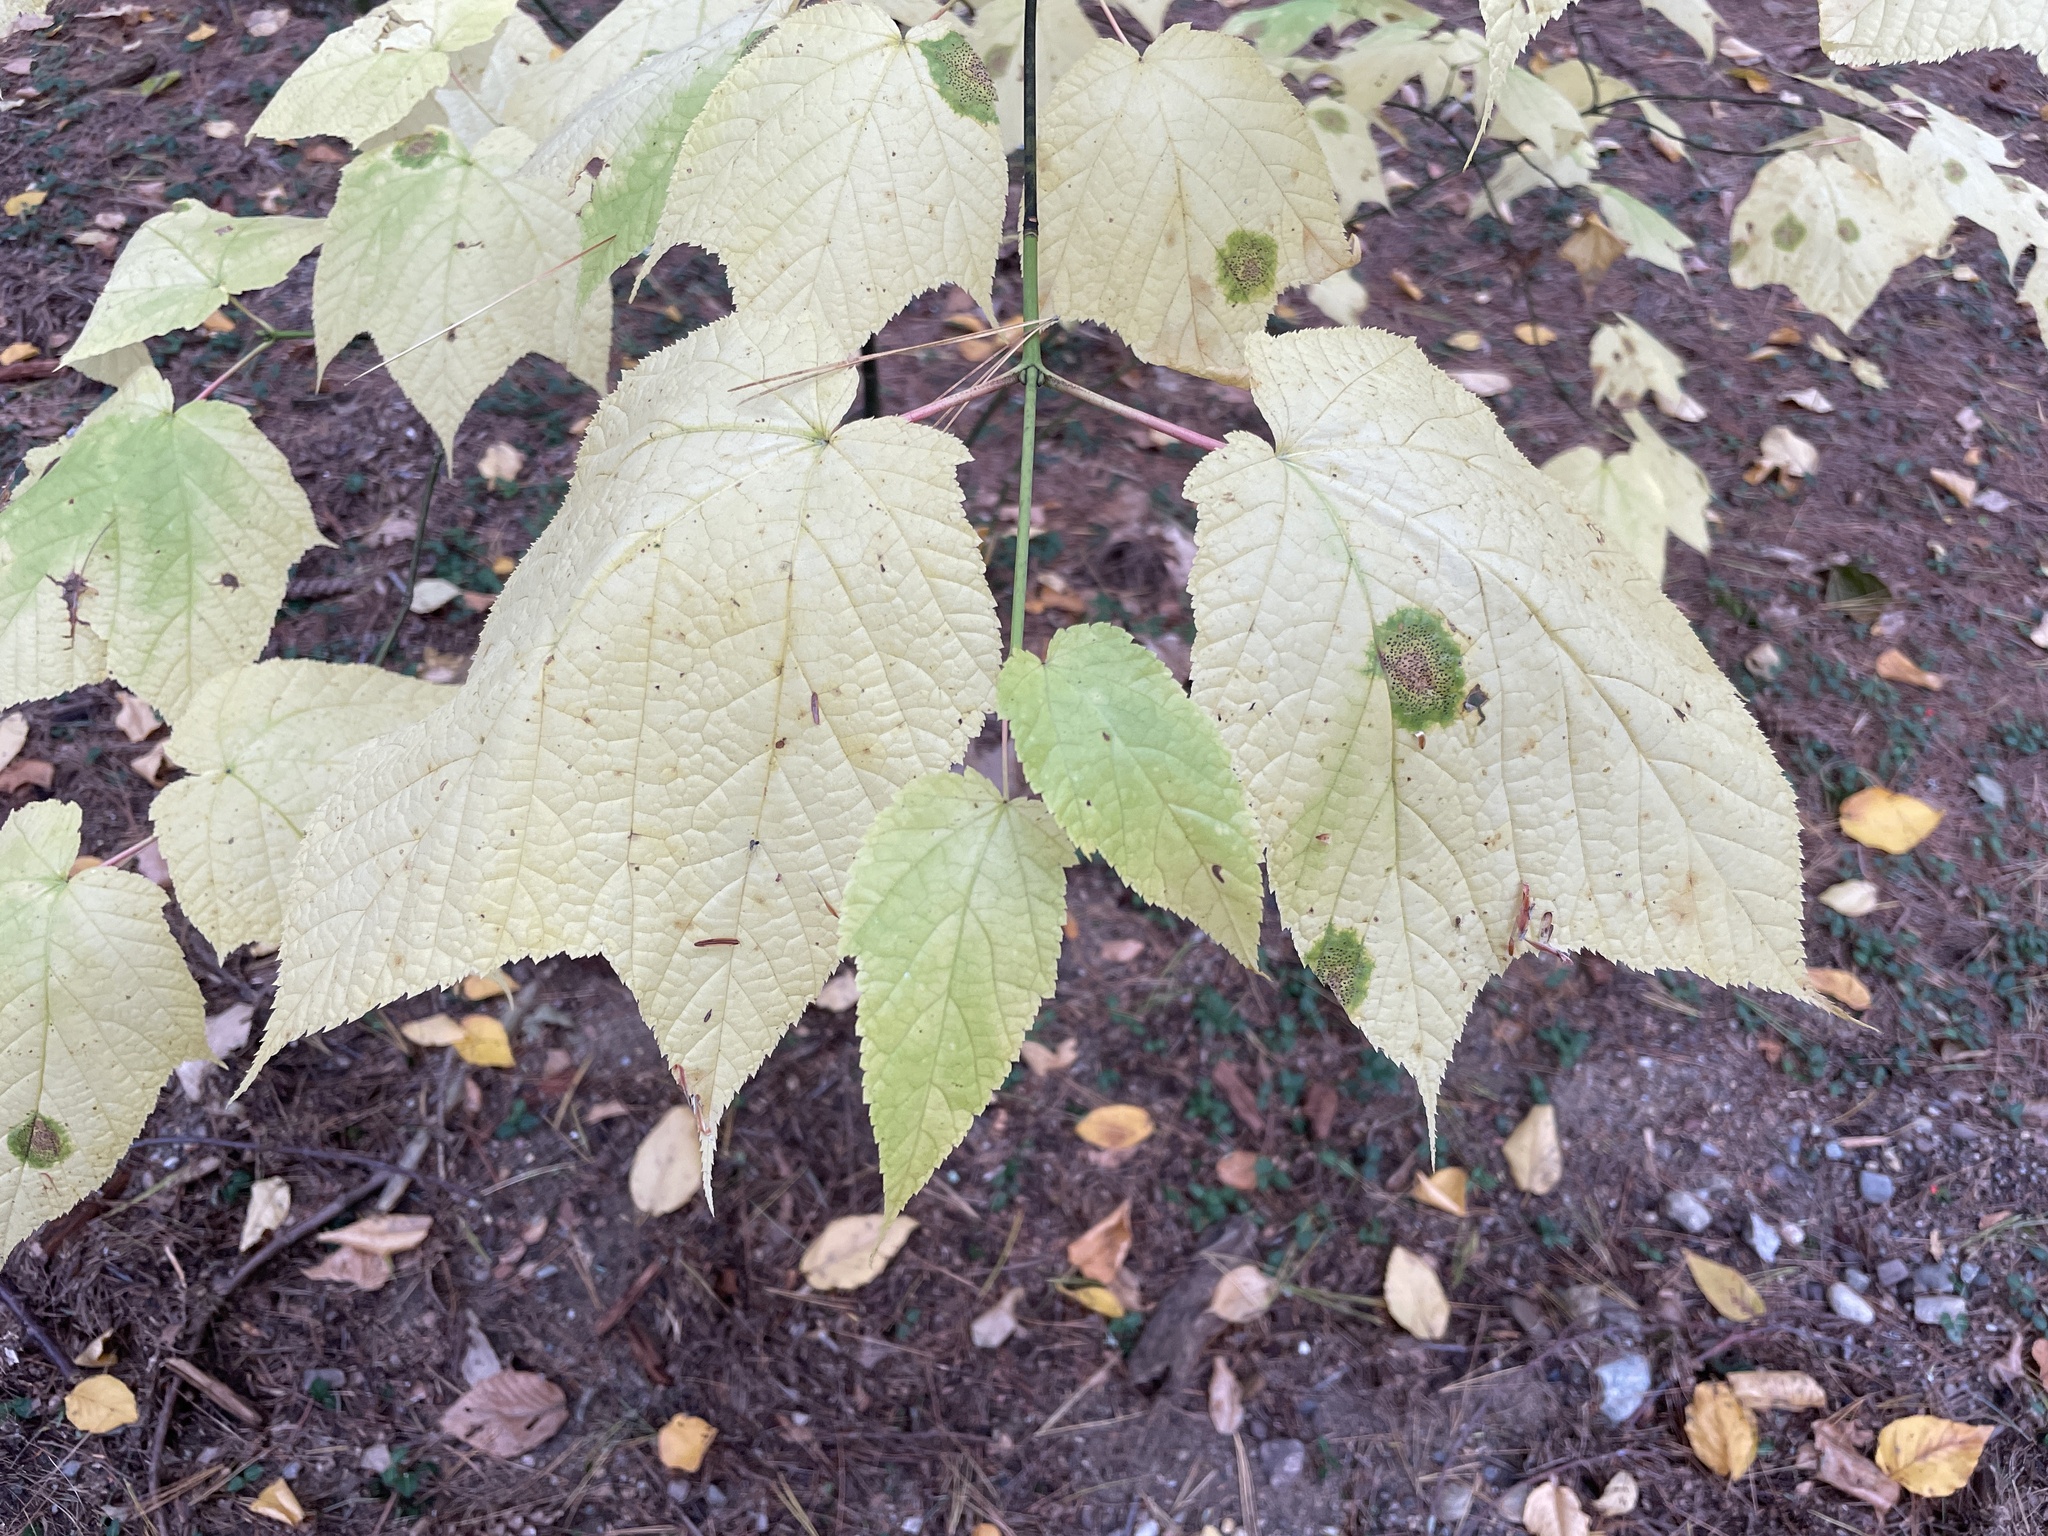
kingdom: Plantae
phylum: Tracheophyta
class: Magnoliopsida
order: Sapindales
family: Sapindaceae
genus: Acer
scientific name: Acer pensylvanicum
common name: Moosewood
